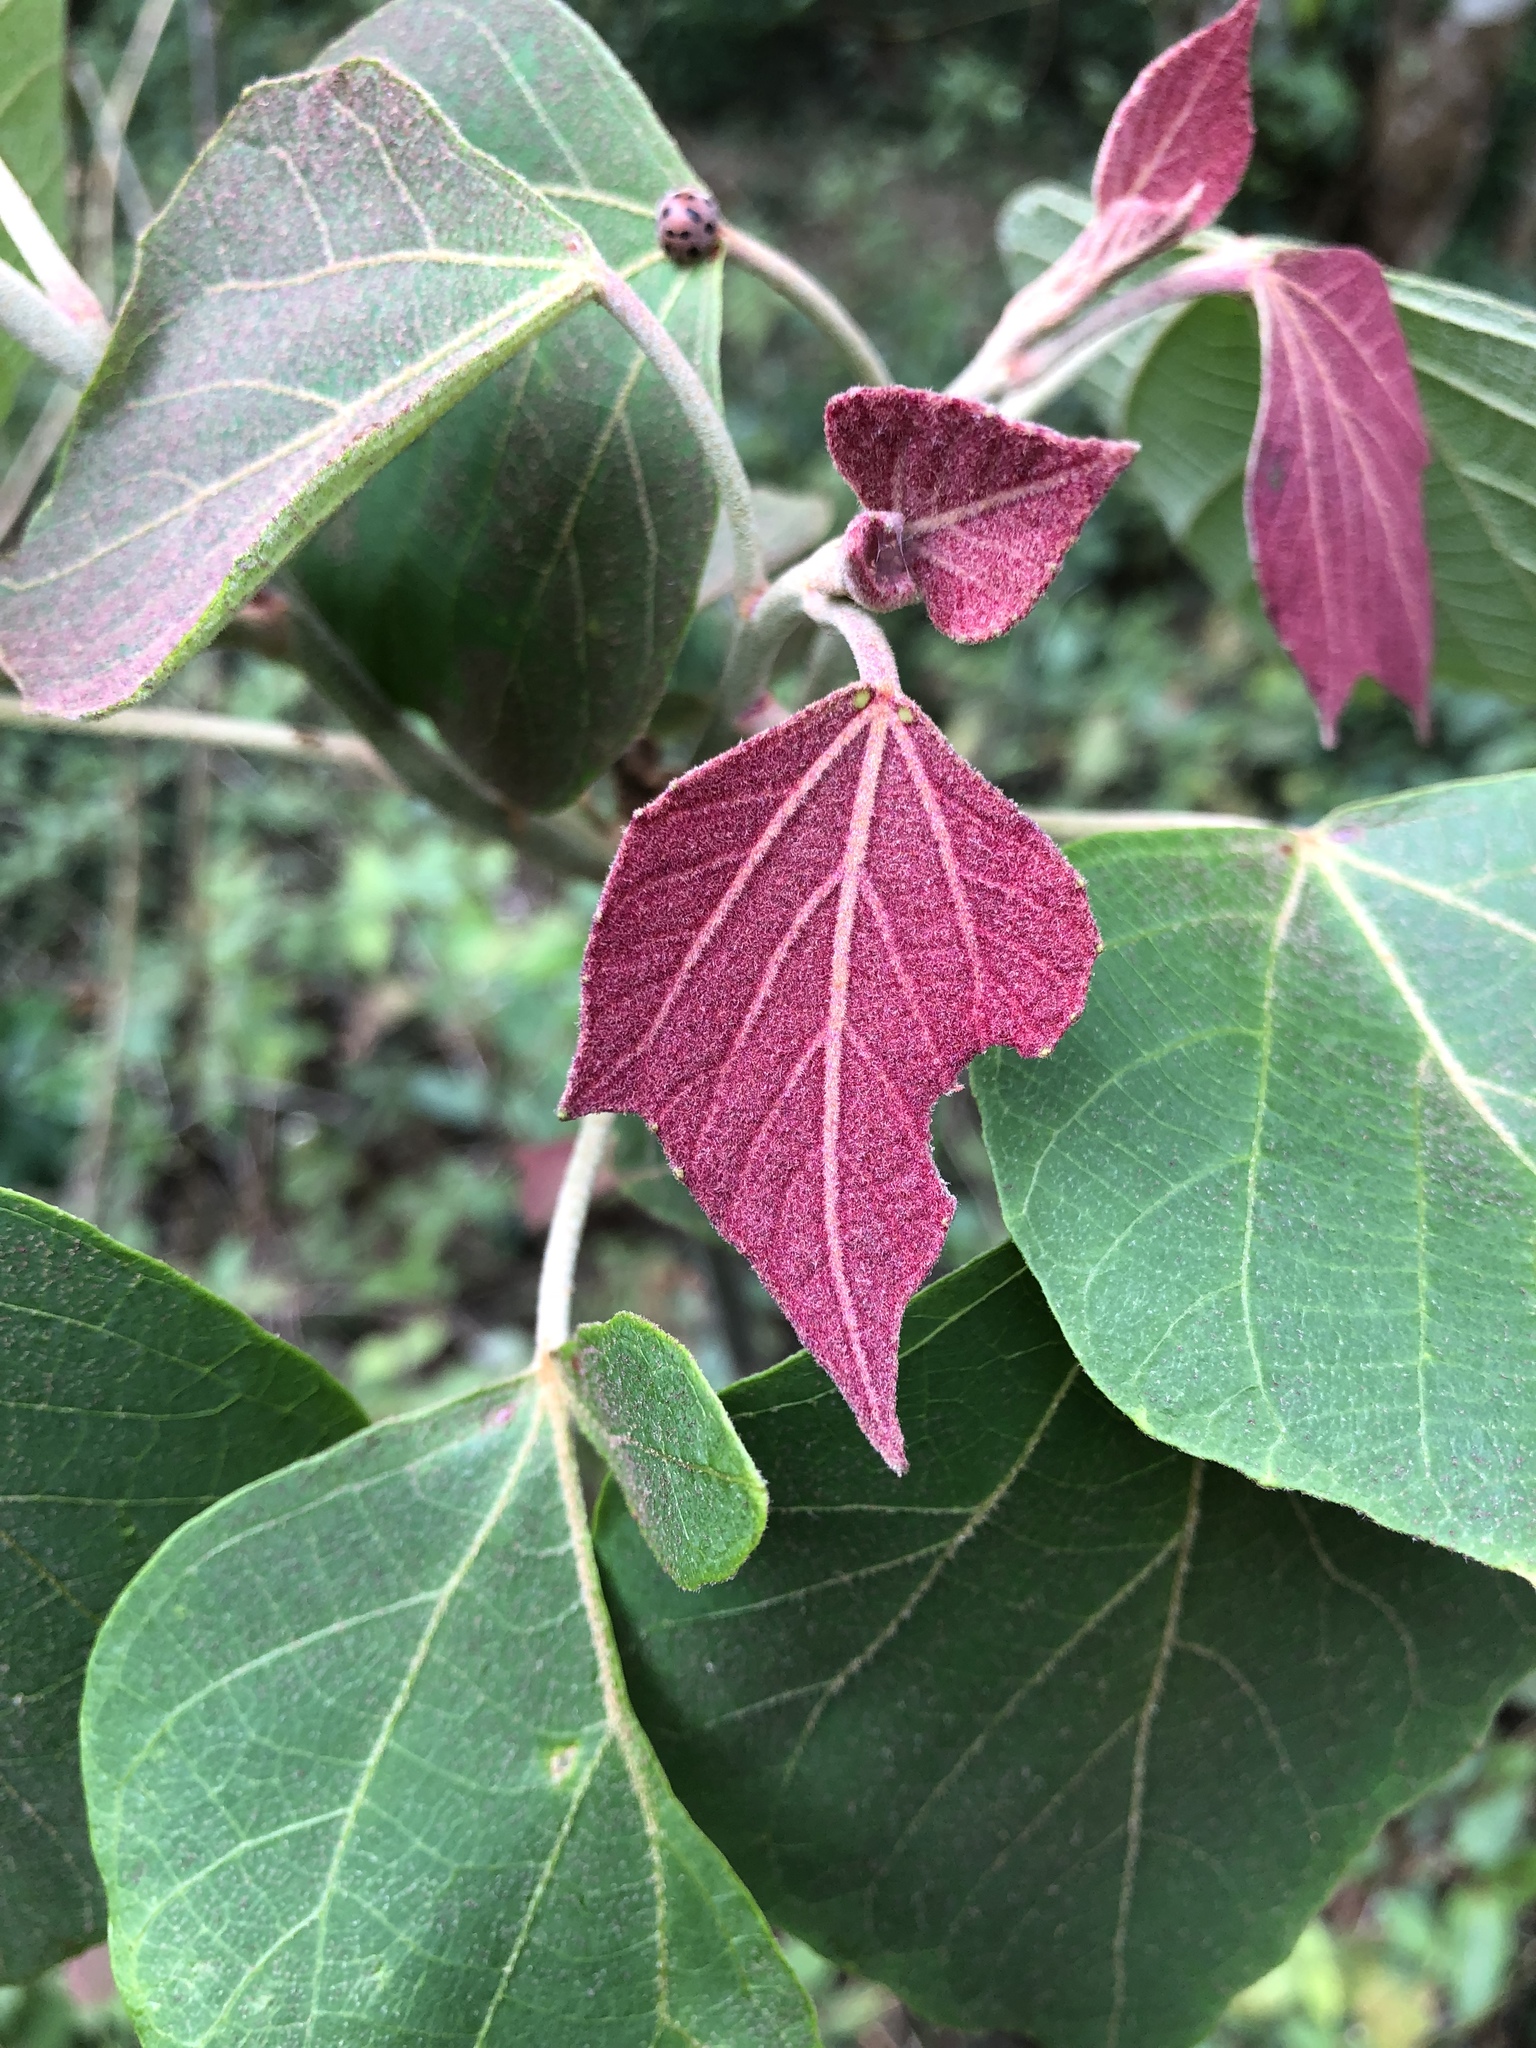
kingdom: Plantae
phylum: Tracheophyta
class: Magnoliopsida
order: Malpighiales
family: Euphorbiaceae
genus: Mallotus
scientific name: Mallotus japonicus
